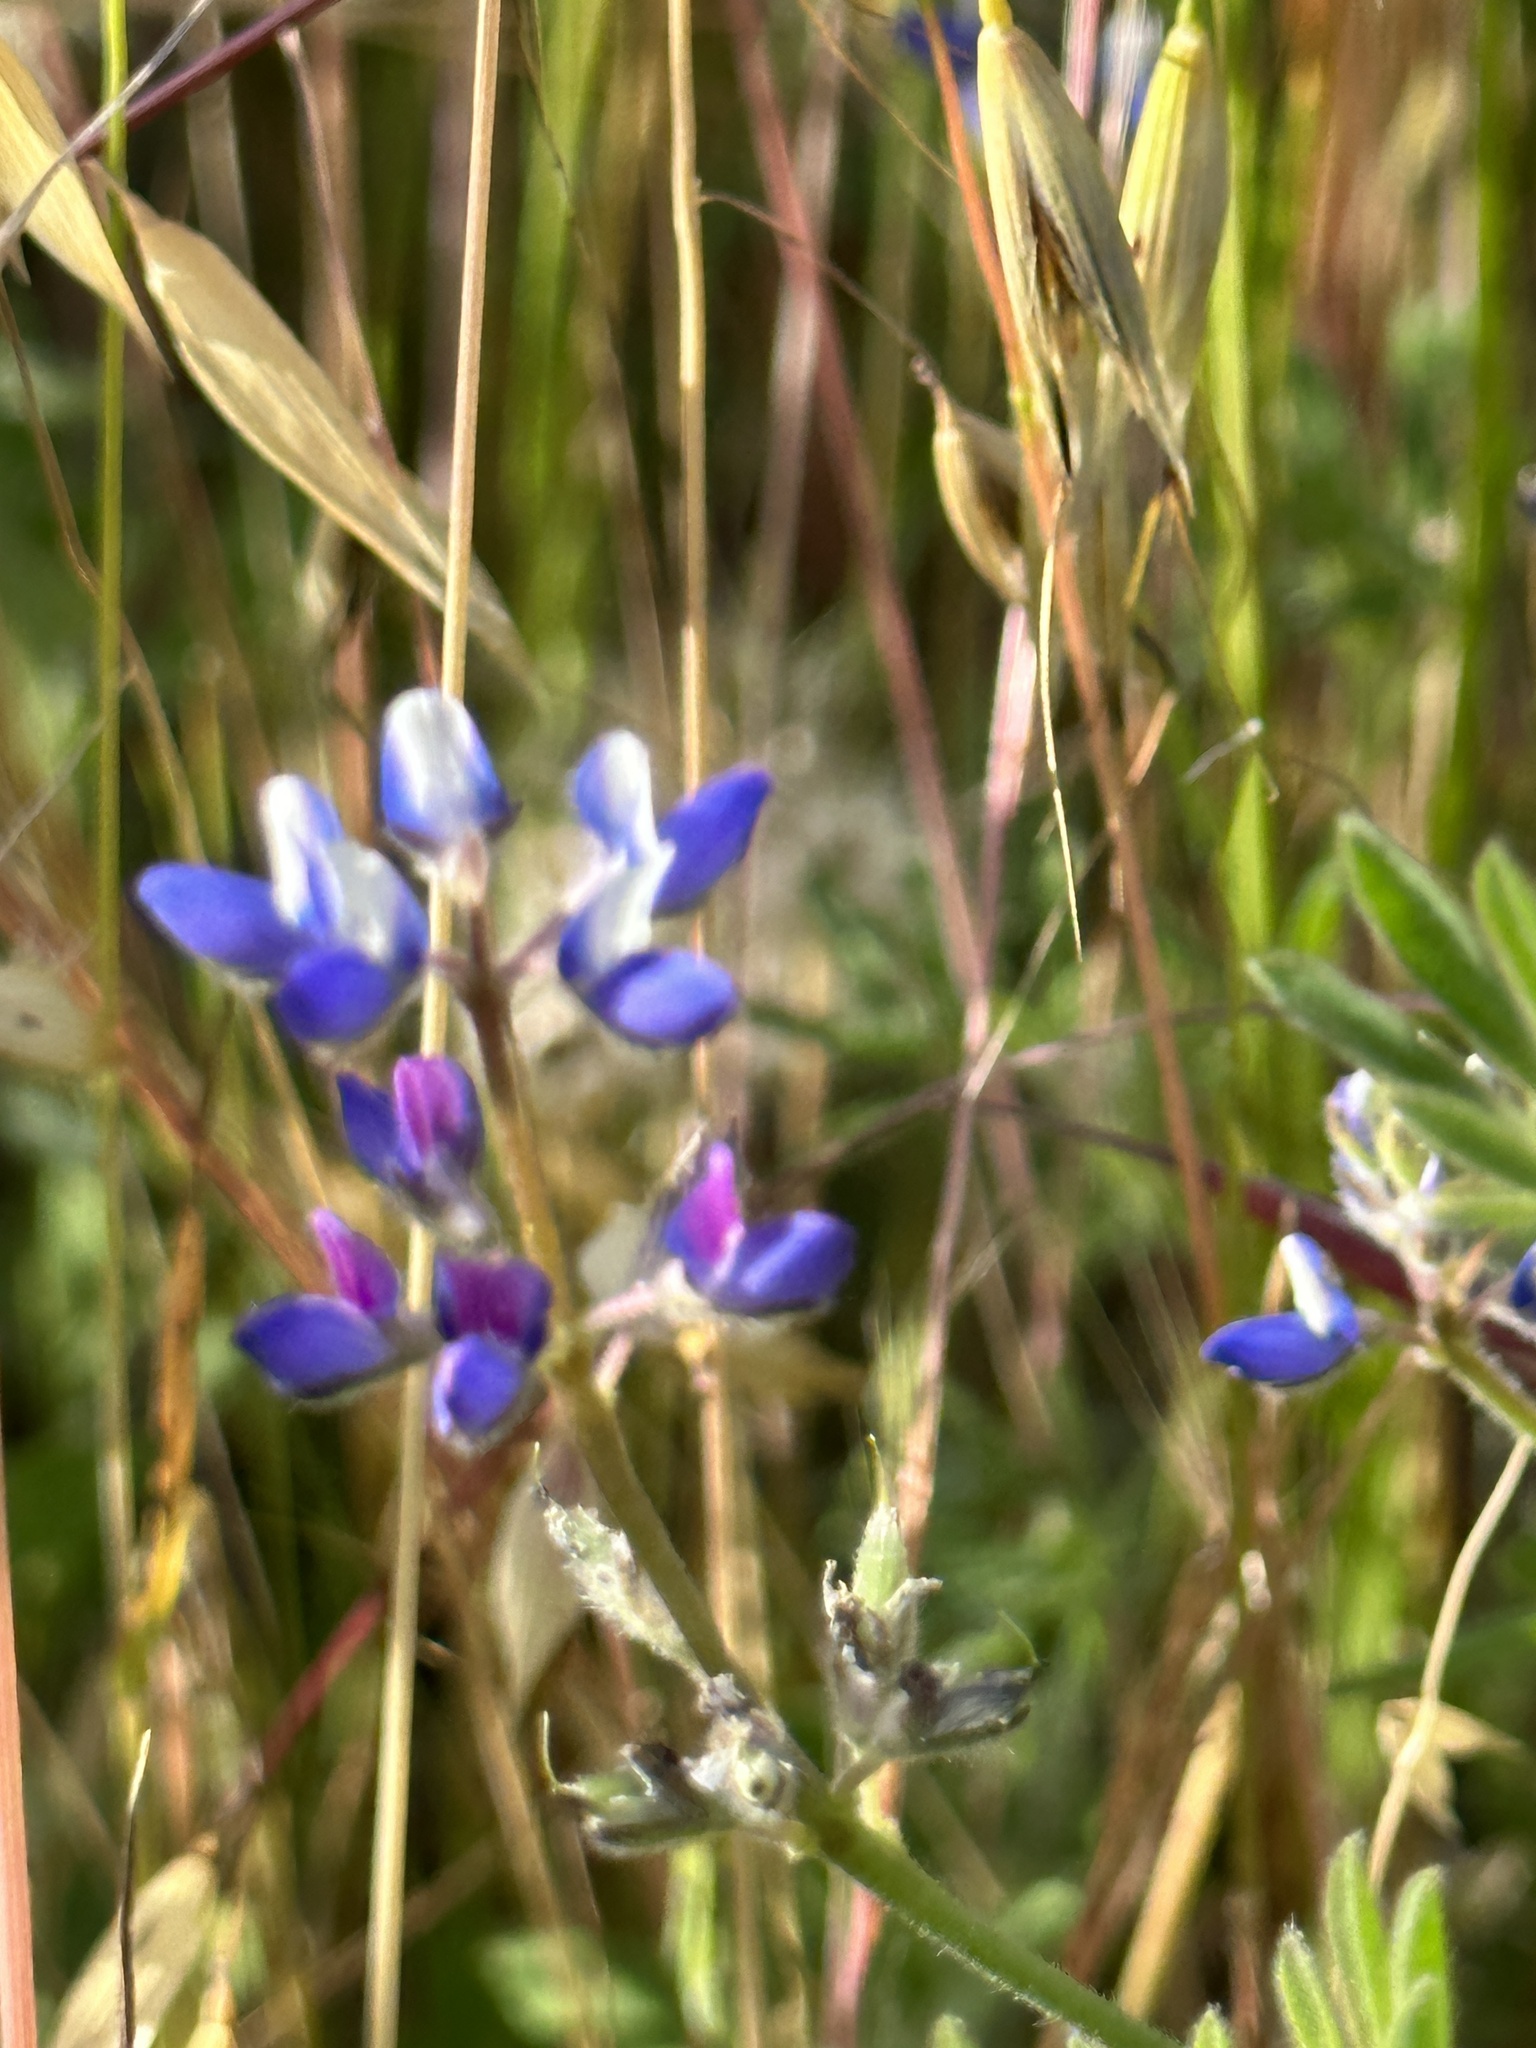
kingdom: Plantae
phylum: Tracheophyta
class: Magnoliopsida
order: Fabales
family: Fabaceae
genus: Lupinus
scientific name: Lupinus bicolor
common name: Miniature lupine
